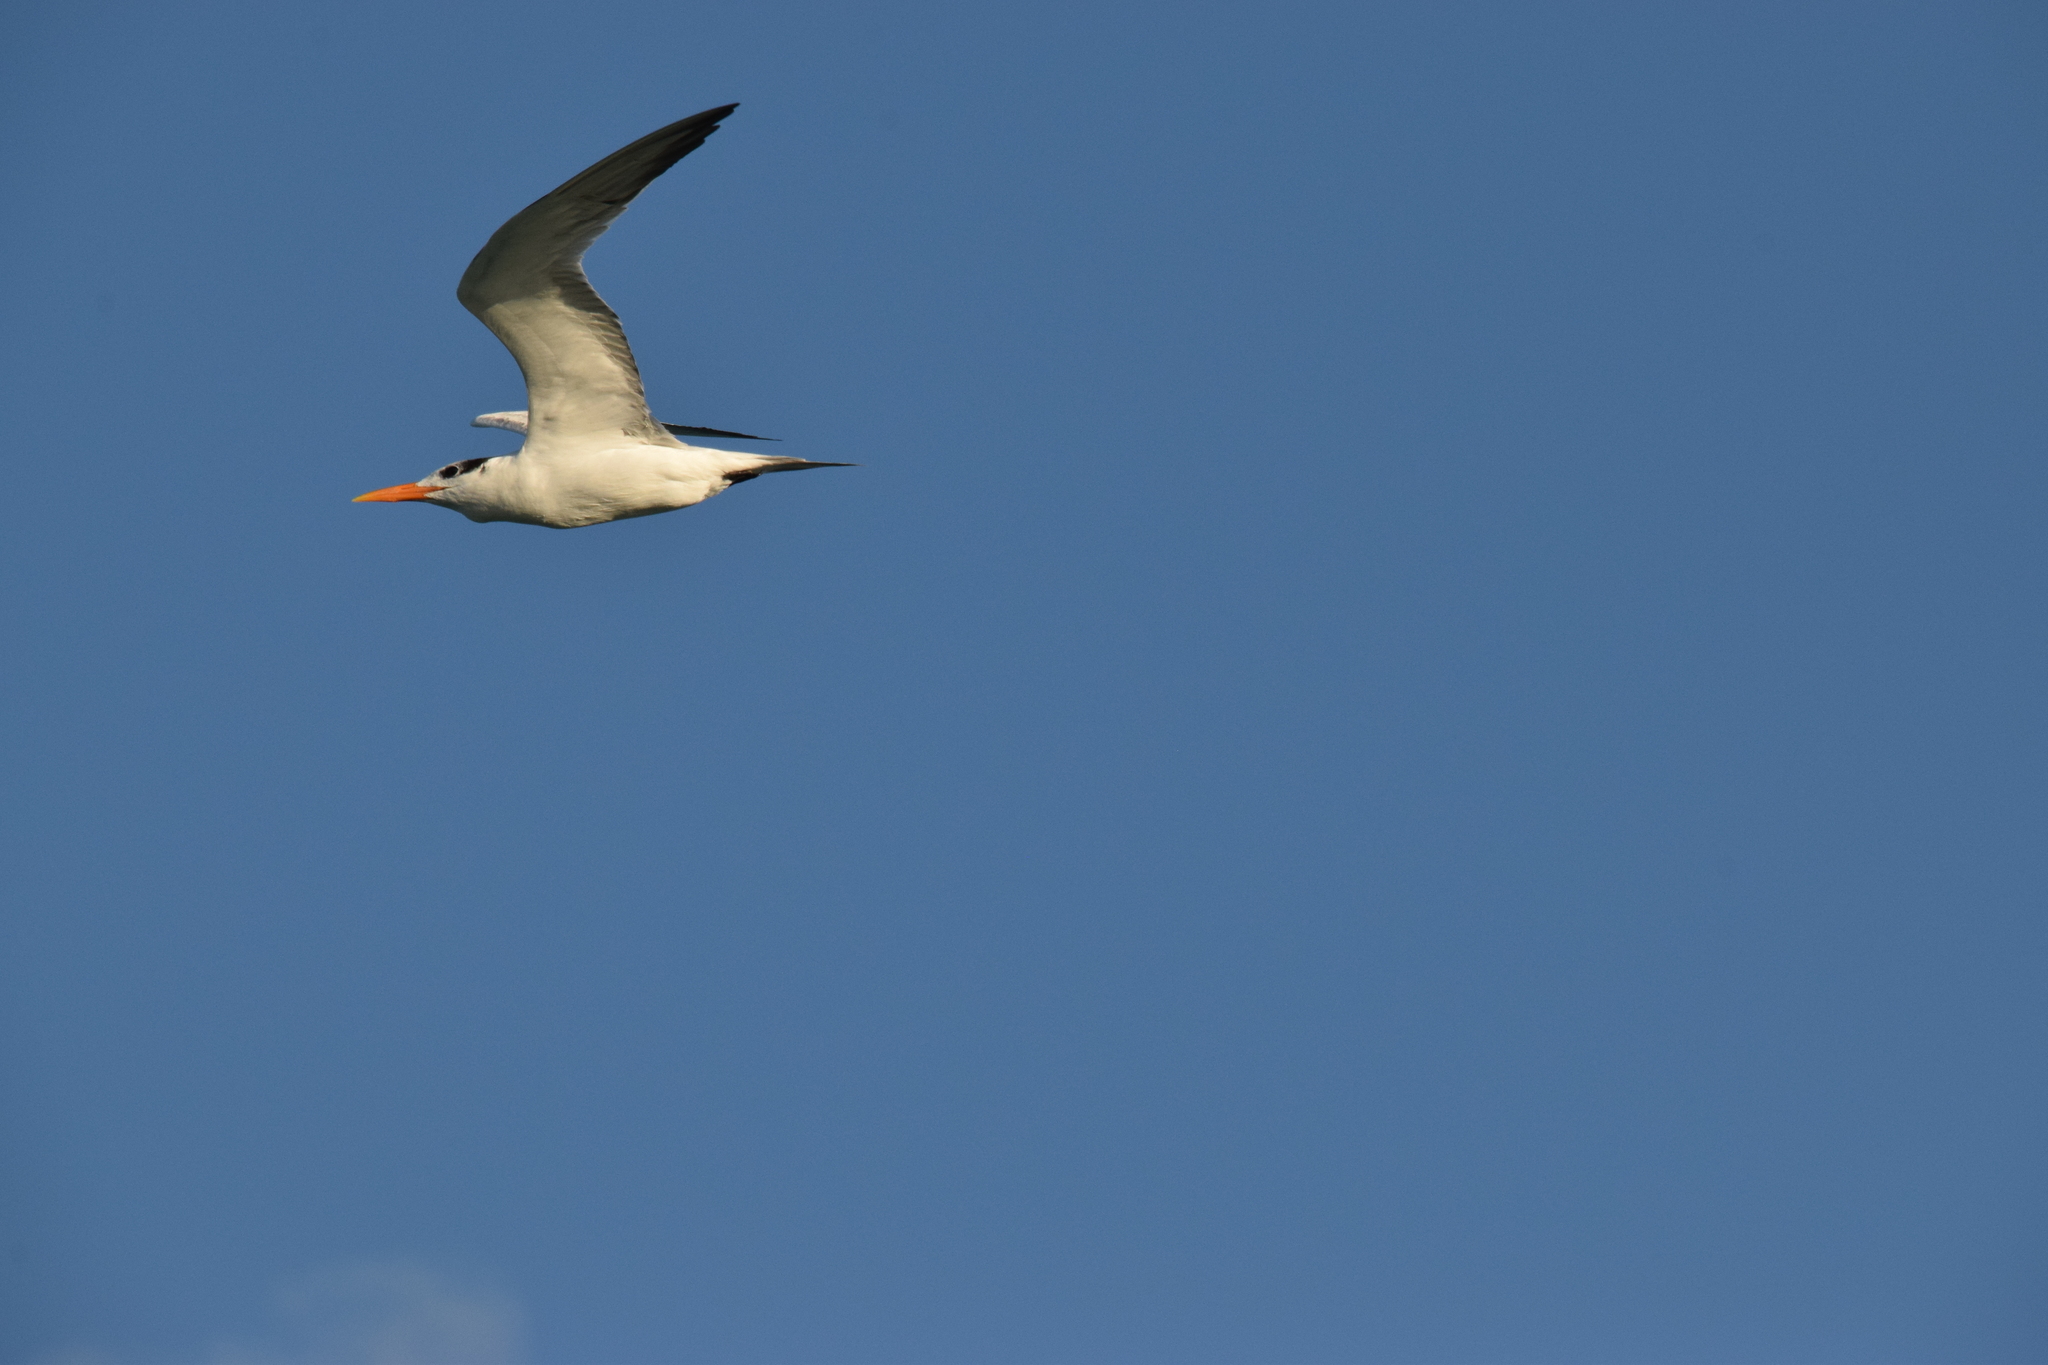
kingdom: Animalia
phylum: Chordata
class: Aves
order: Charadriiformes
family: Laridae
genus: Thalasseus
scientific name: Thalasseus maximus
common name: Royal tern
